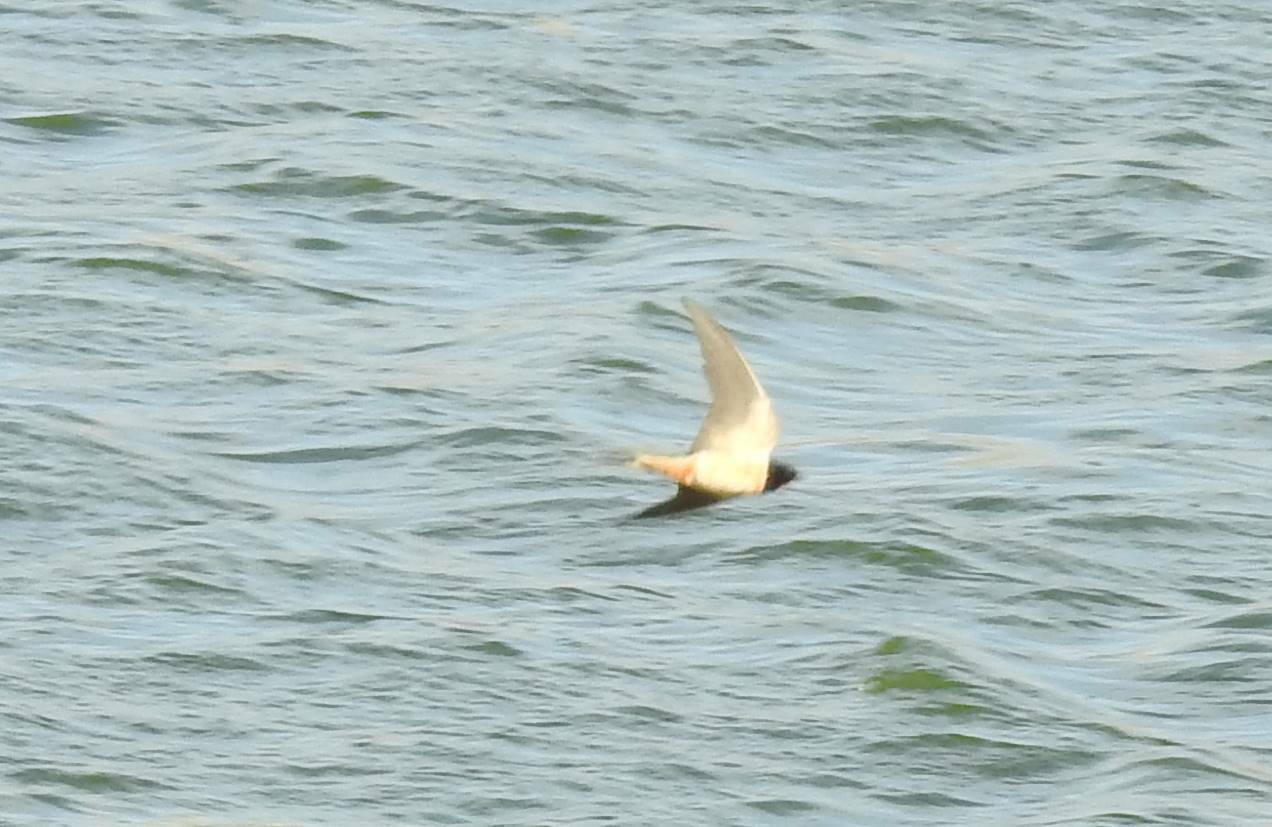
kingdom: Animalia
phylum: Chordata
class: Aves
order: Passeriformes
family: Hirundinidae
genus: Hirundo
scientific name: Hirundo rustica
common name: Barn swallow
